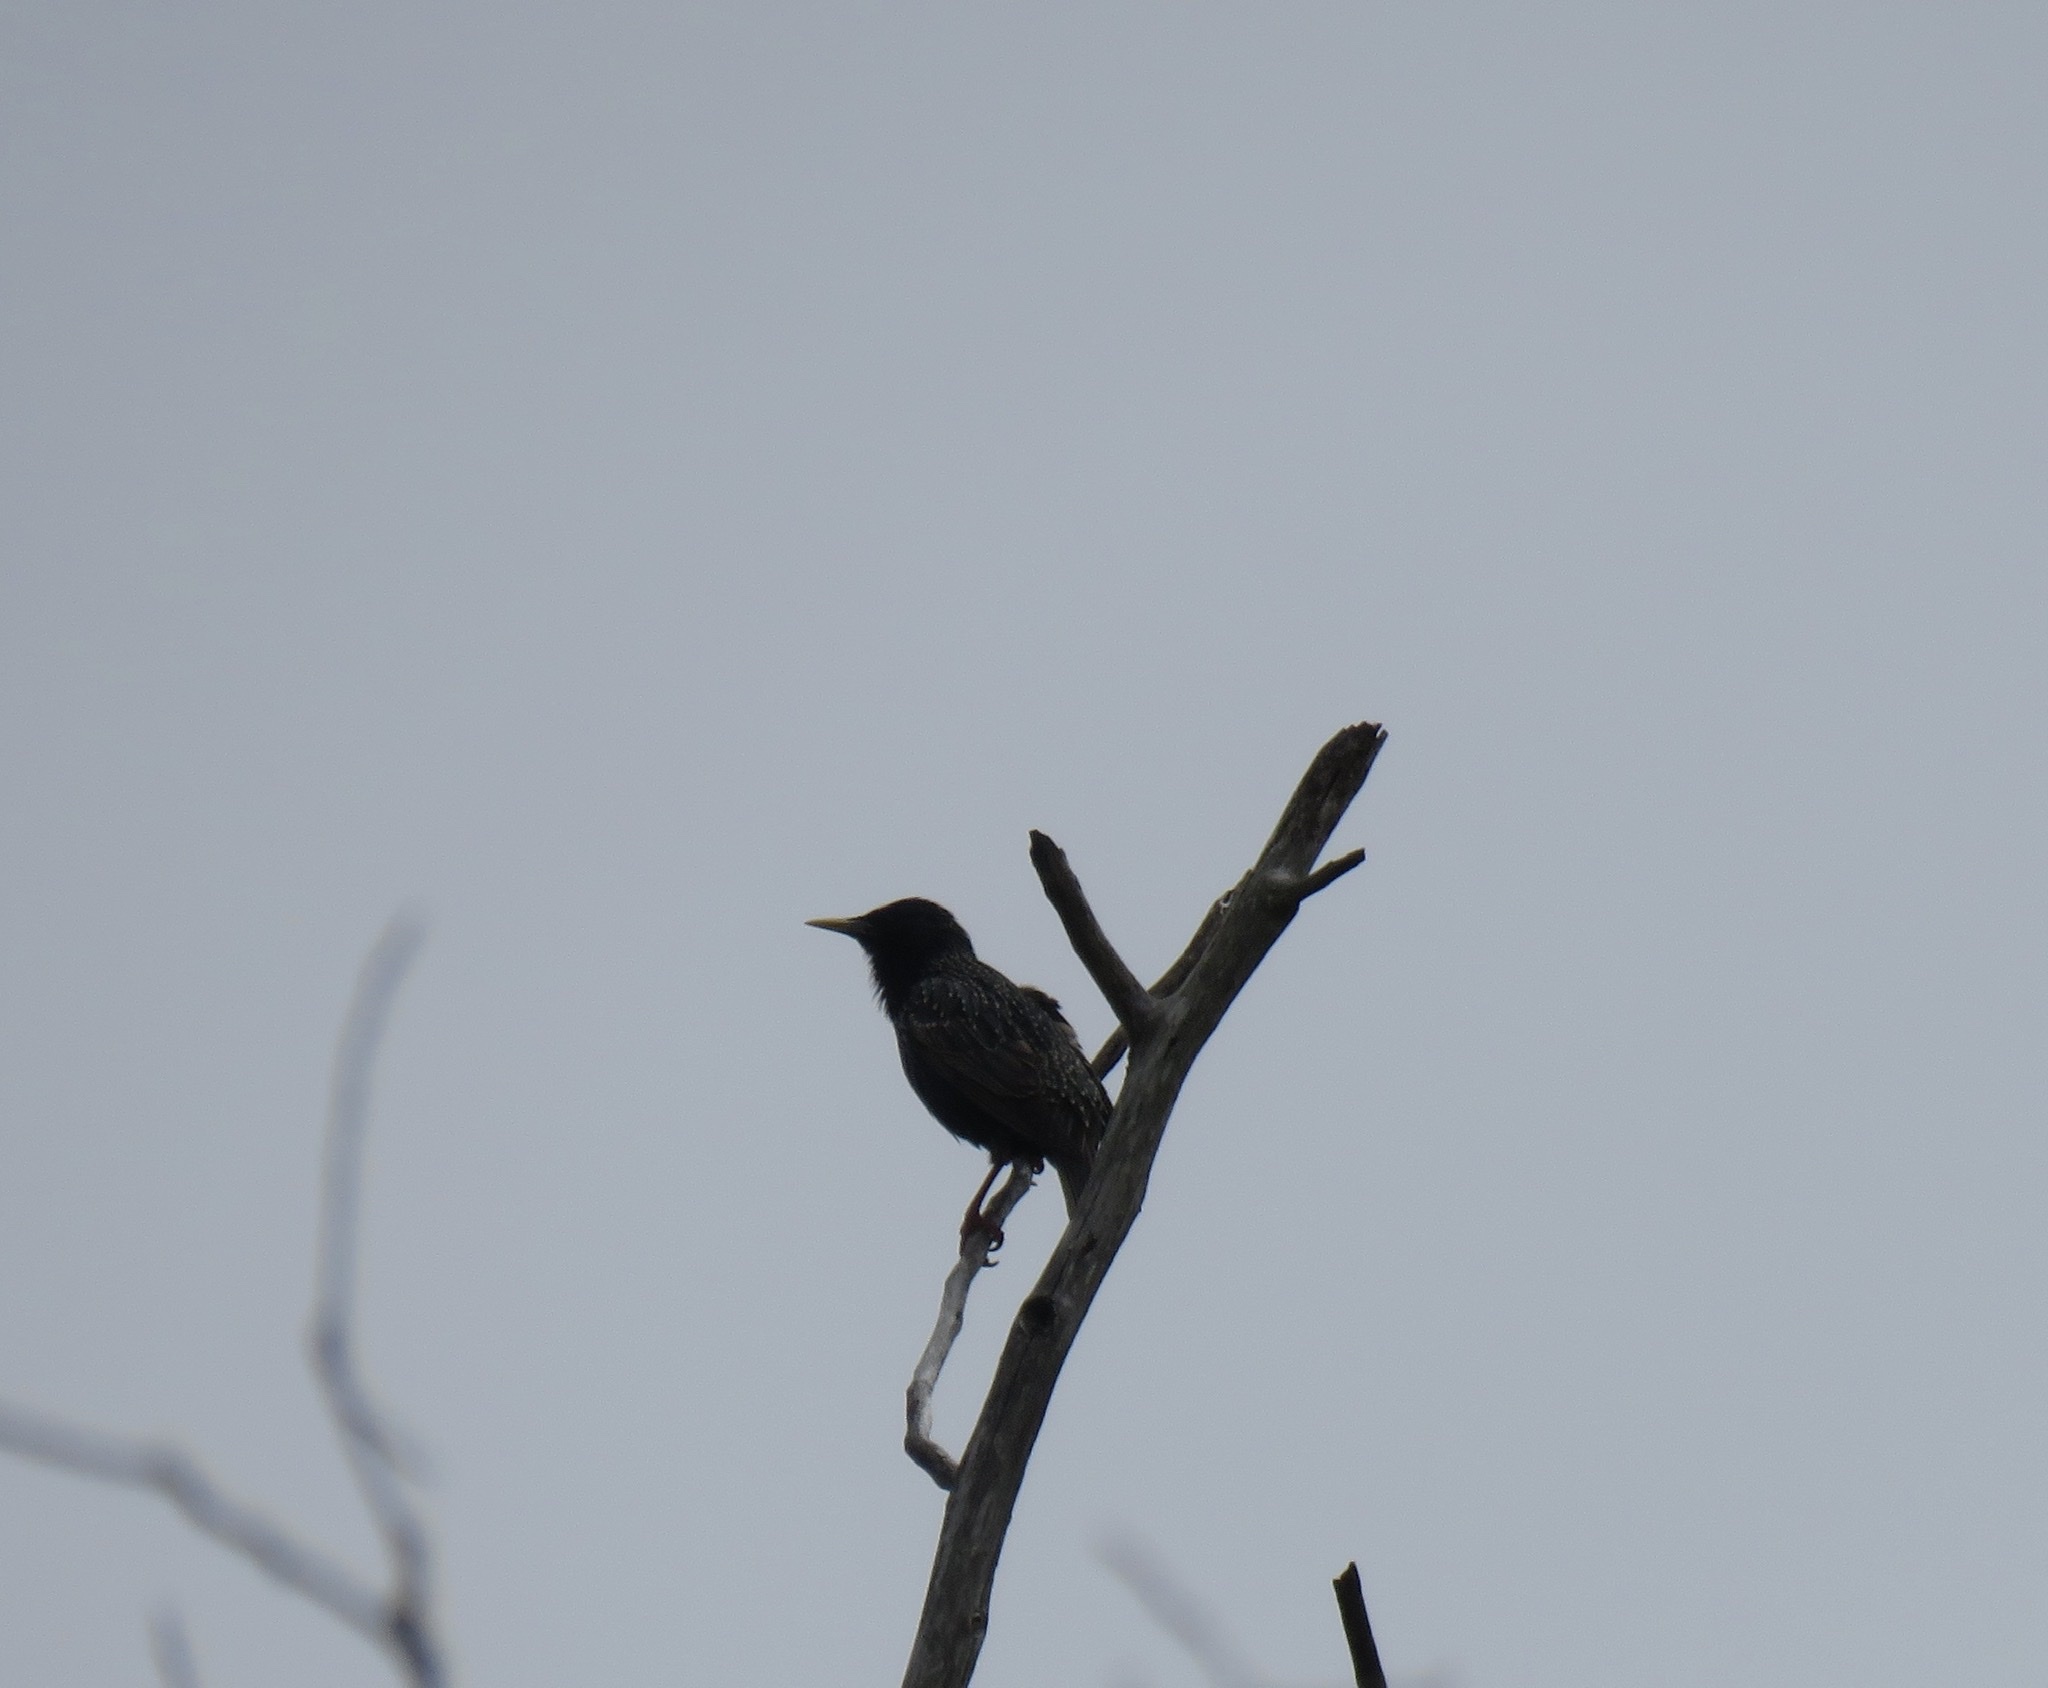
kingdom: Animalia
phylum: Chordata
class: Aves
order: Passeriformes
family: Sturnidae
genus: Sturnus
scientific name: Sturnus vulgaris
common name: Common starling
